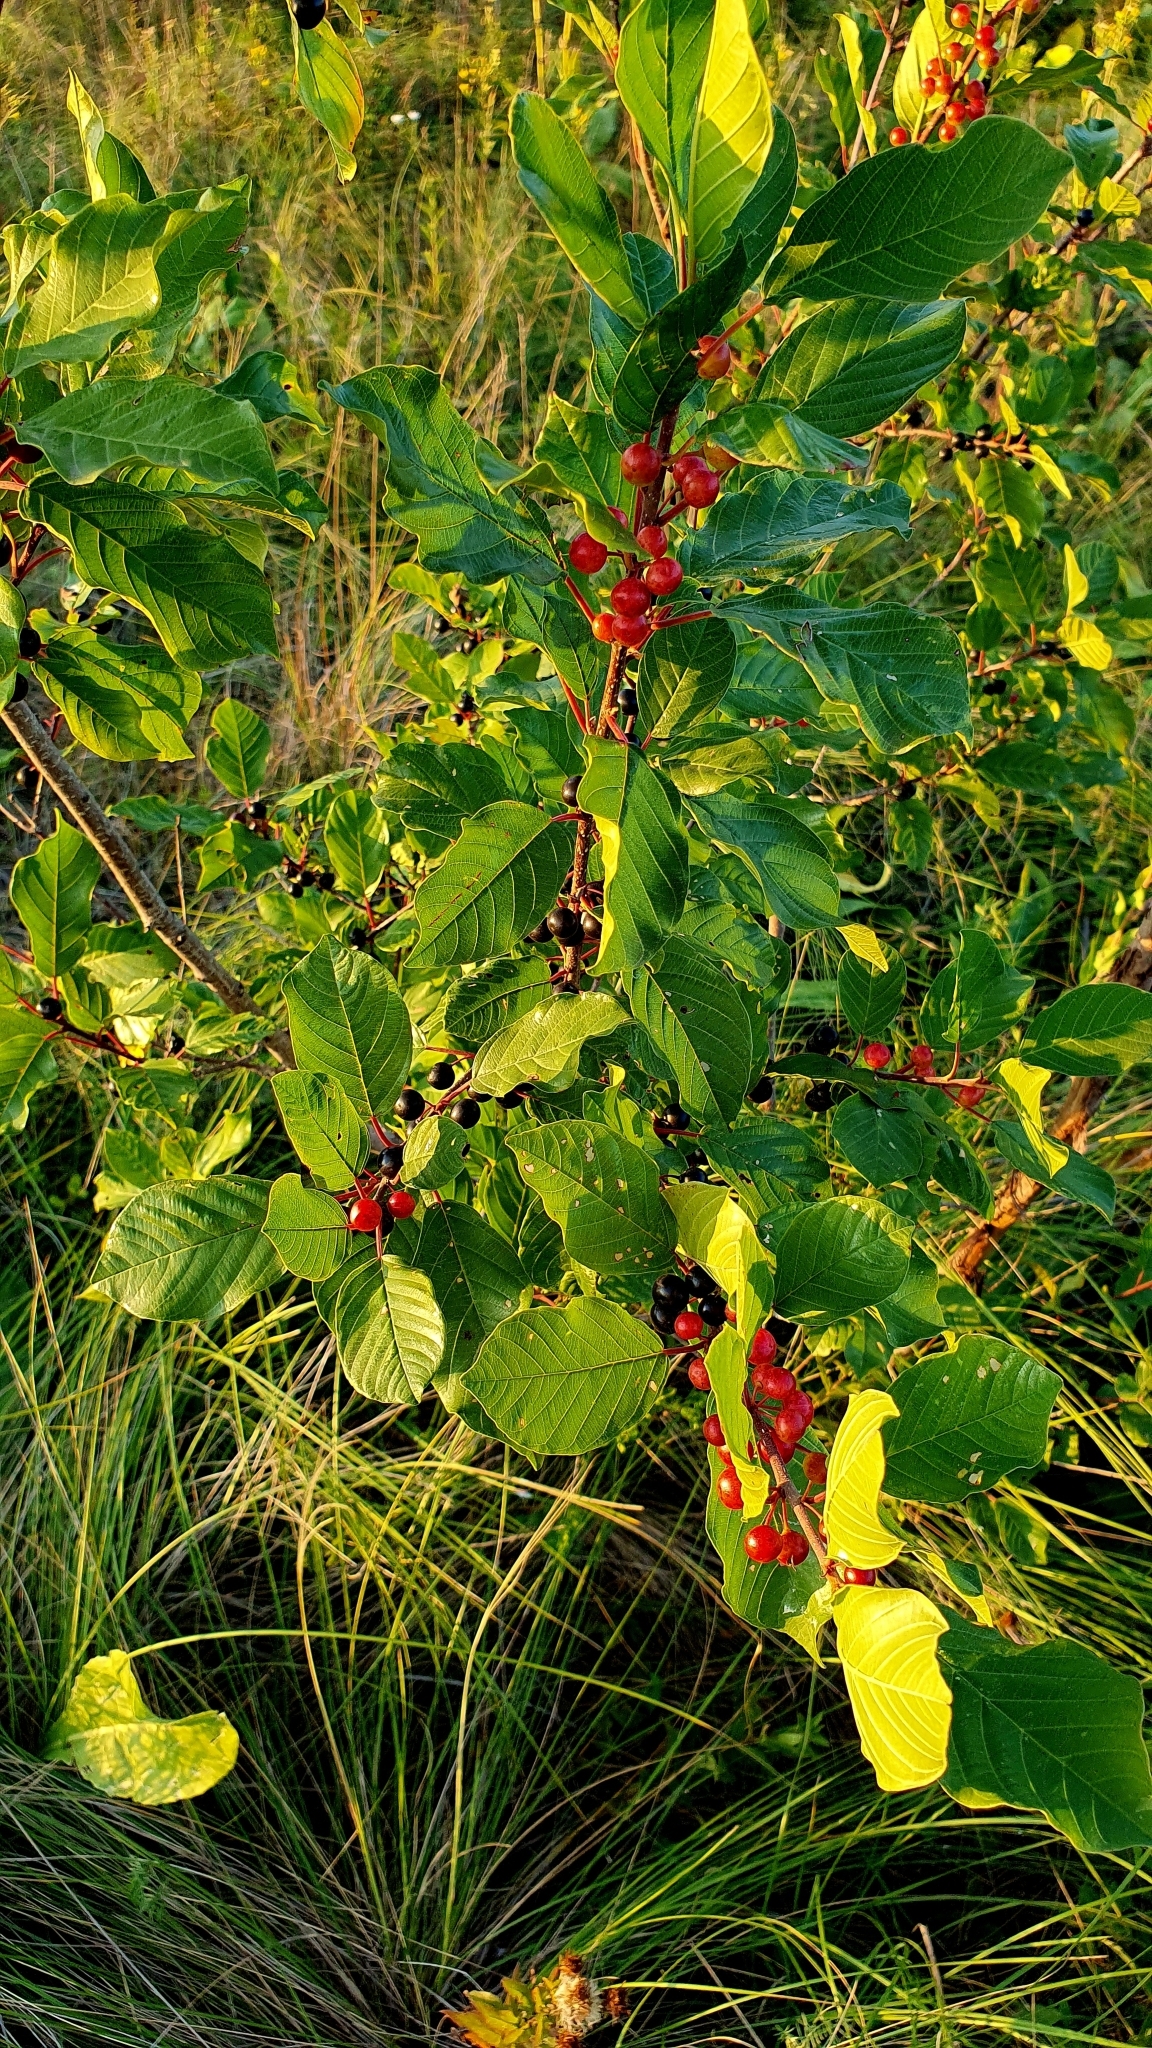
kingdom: Plantae
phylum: Tracheophyta
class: Magnoliopsida
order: Rosales
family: Rhamnaceae
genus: Frangula
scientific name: Frangula alnus
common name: Alder buckthorn
